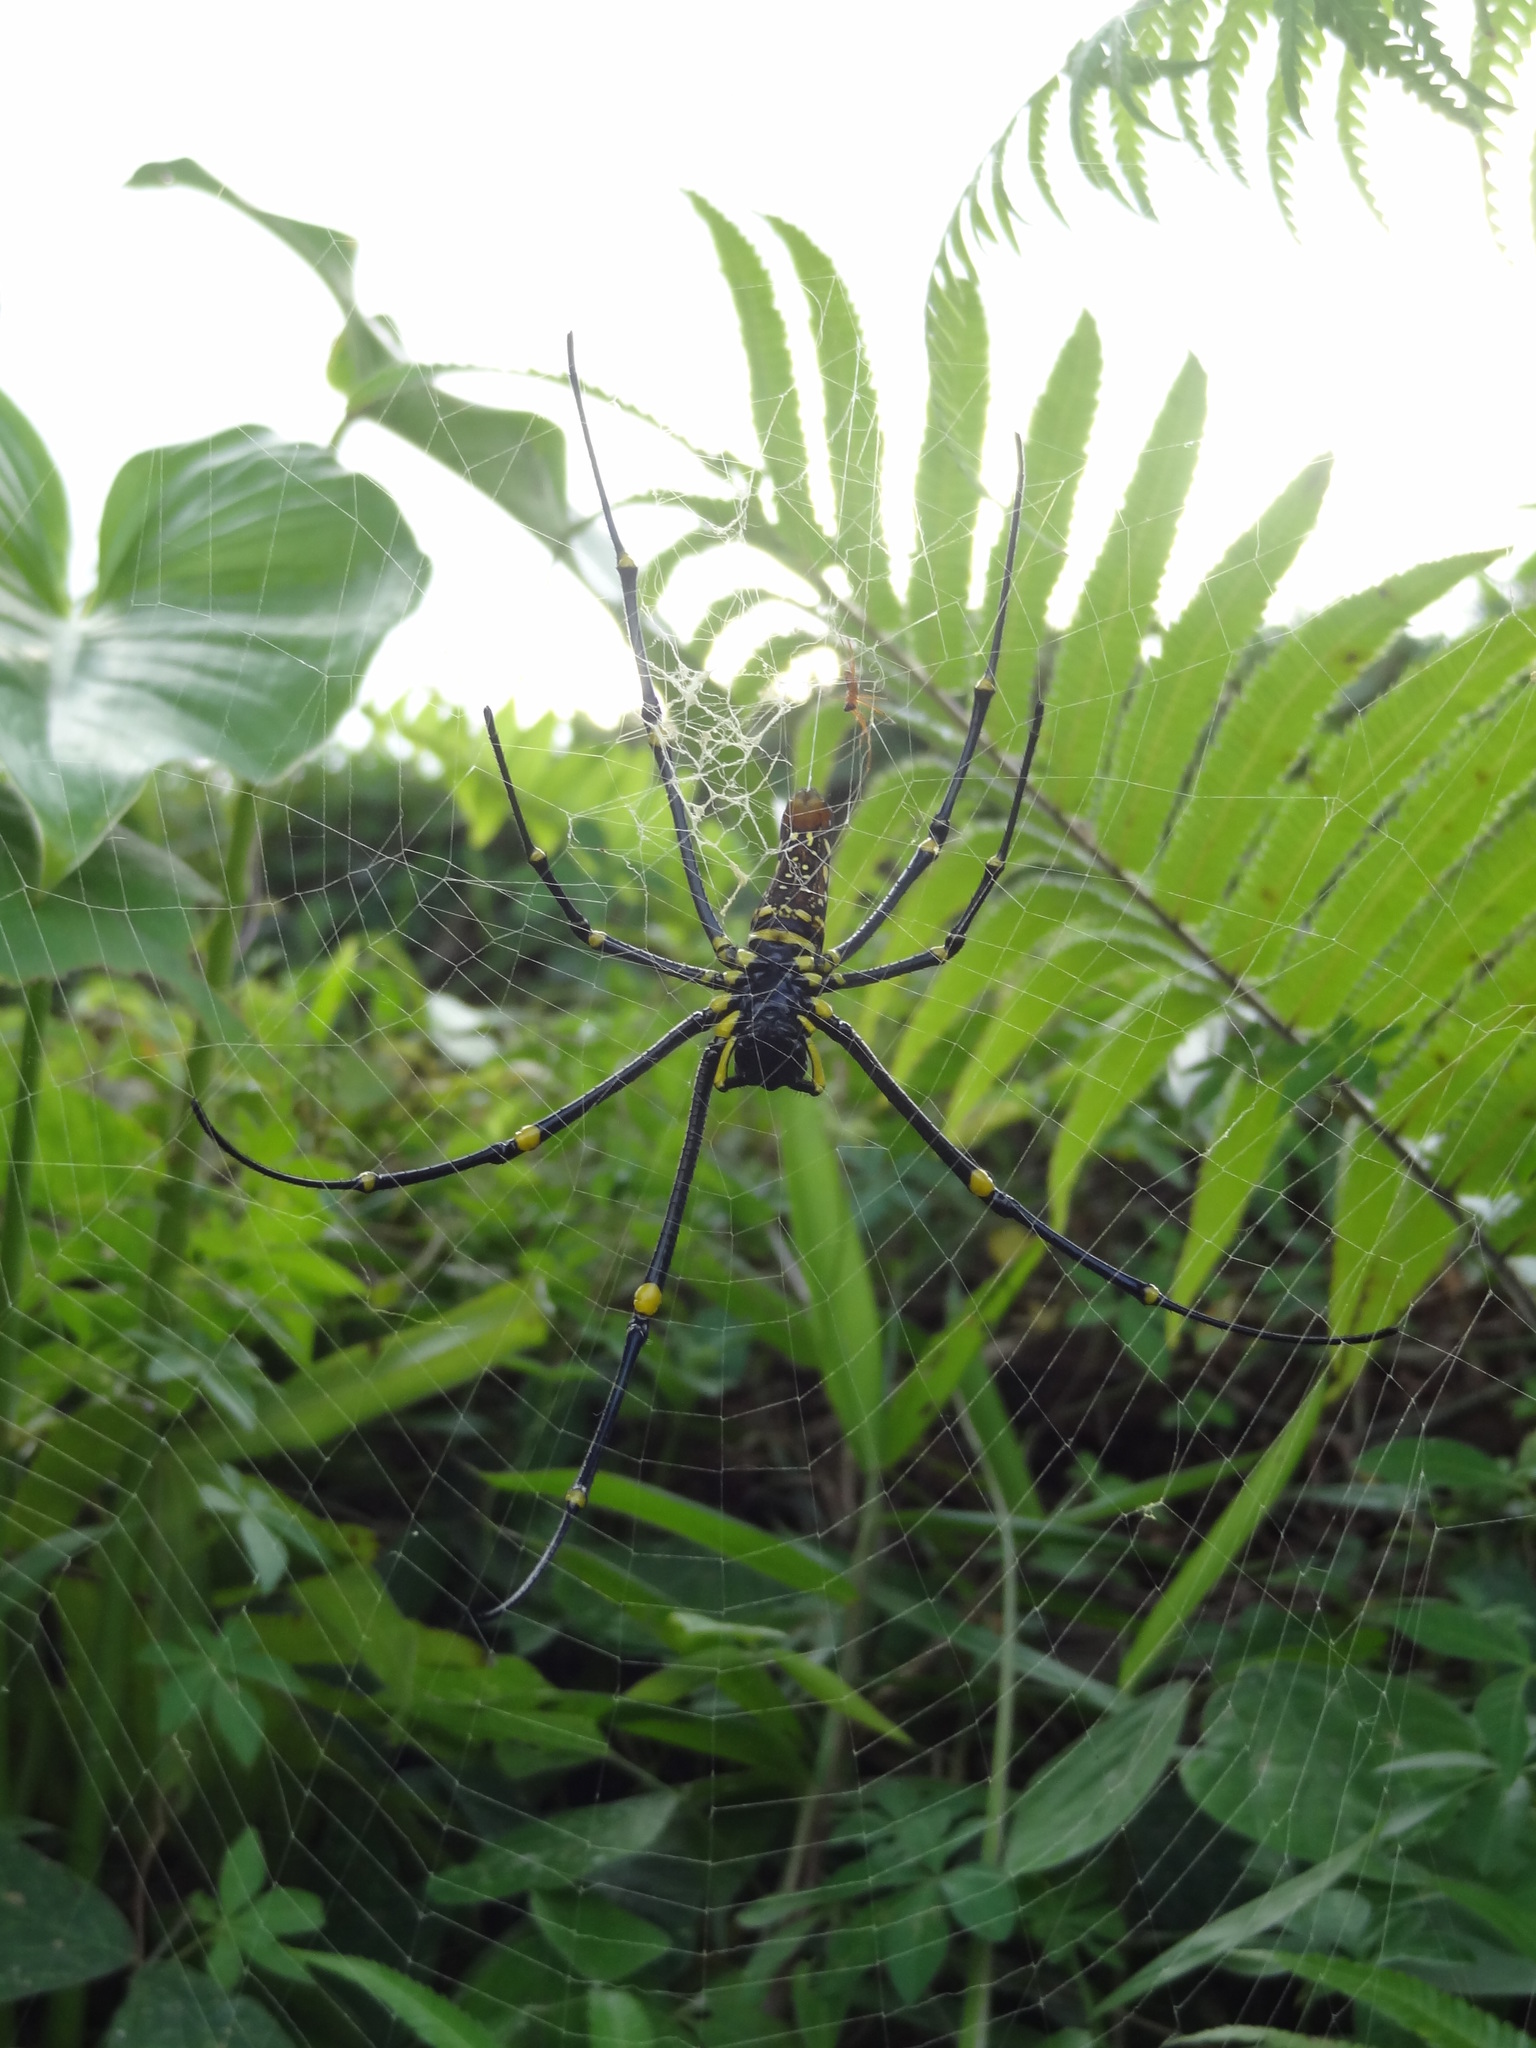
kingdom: Animalia
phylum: Arthropoda
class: Arachnida
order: Araneae
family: Araneidae
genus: Nephila
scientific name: Nephila pilipes
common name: Giant golden orb weaver
